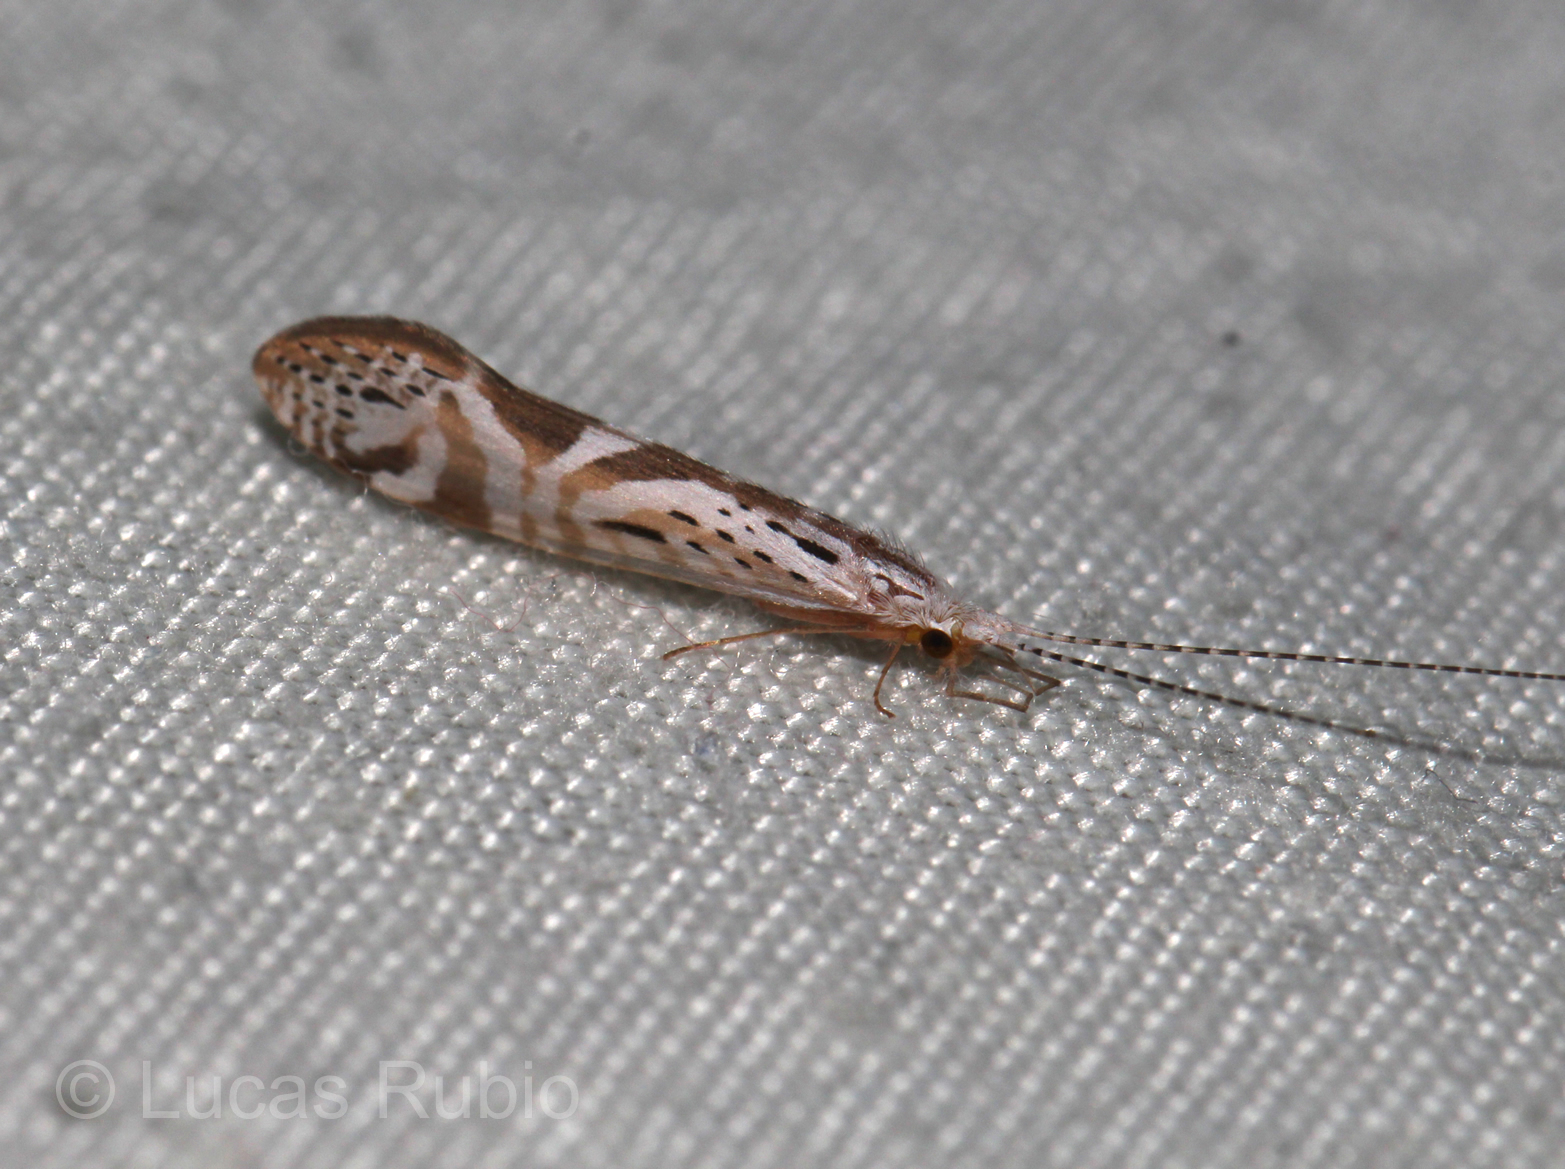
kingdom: Animalia
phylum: Arthropoda
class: Insecta
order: Trichoptera
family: Leptoceridae
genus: Nectopsyche
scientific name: Nectopsyche separata
